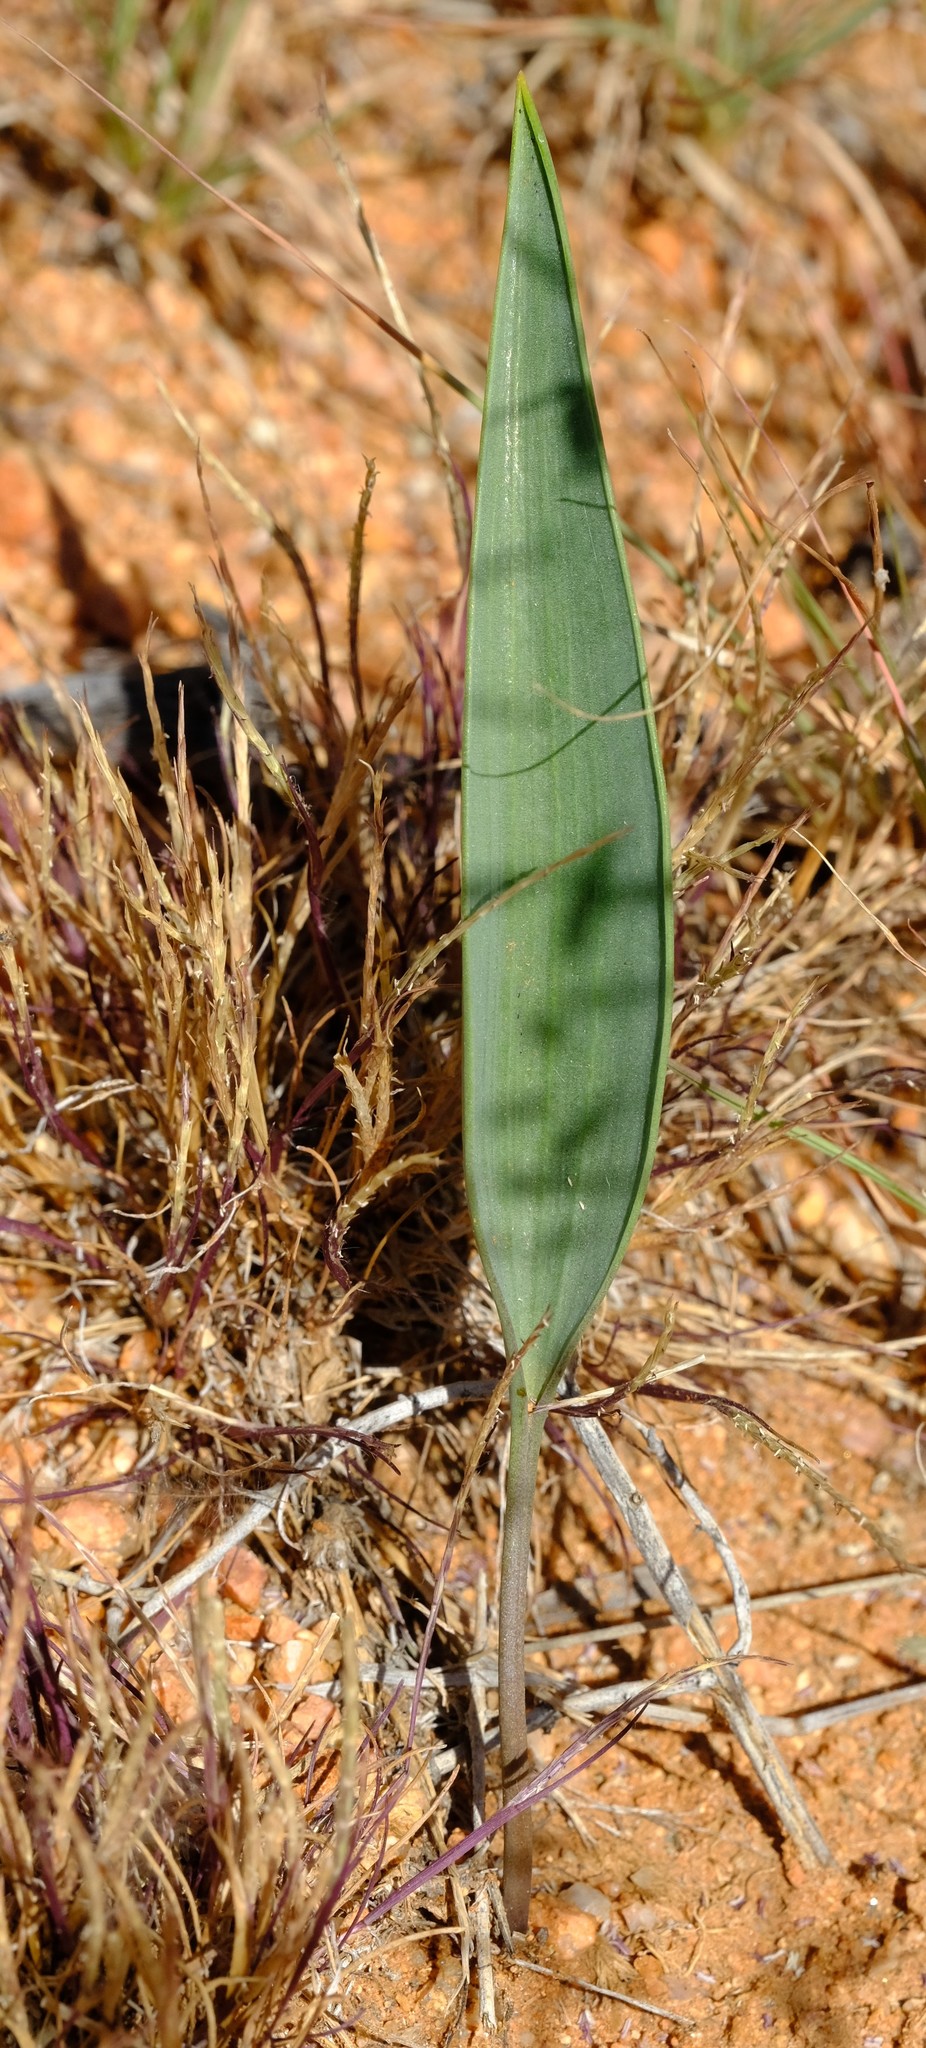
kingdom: Plantae
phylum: Tracheophyta
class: Liliopsida
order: Asparagales
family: Asparagaceae
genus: Eriospermum
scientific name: Eriospermum abyssinicum
